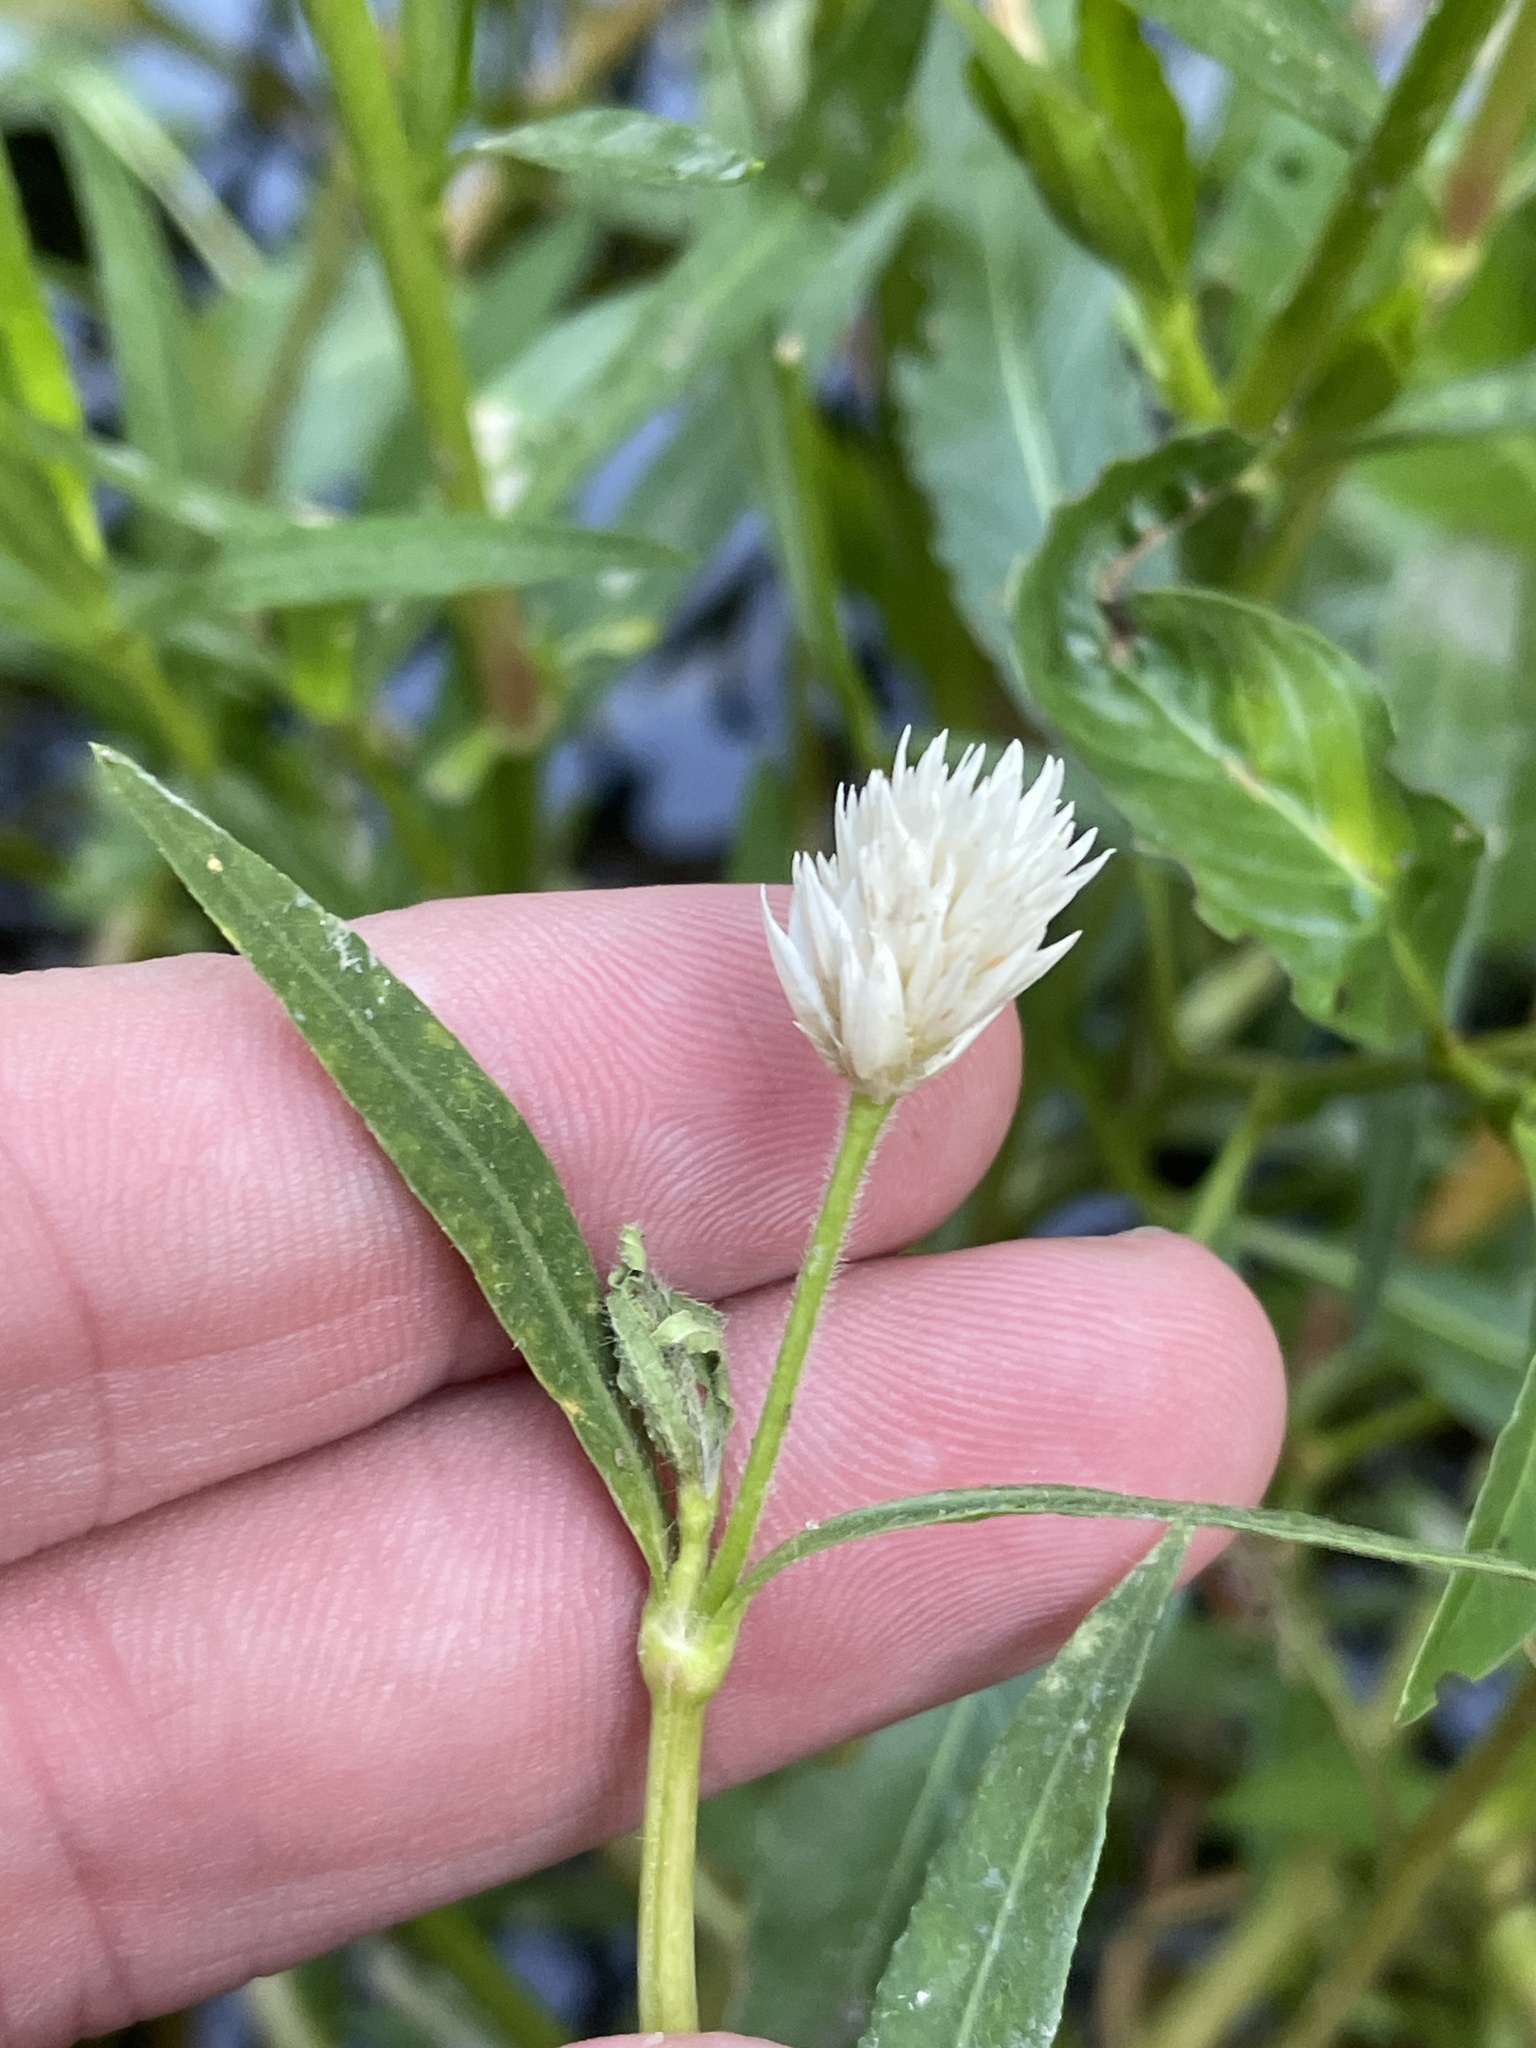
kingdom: Plantae
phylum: Tracheophyta
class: Magnoliopsida
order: Caryophyllales
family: Amaranthaceae
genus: Alternanthera
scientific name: Alternanthera philoxeroides
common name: Alligatorweed
